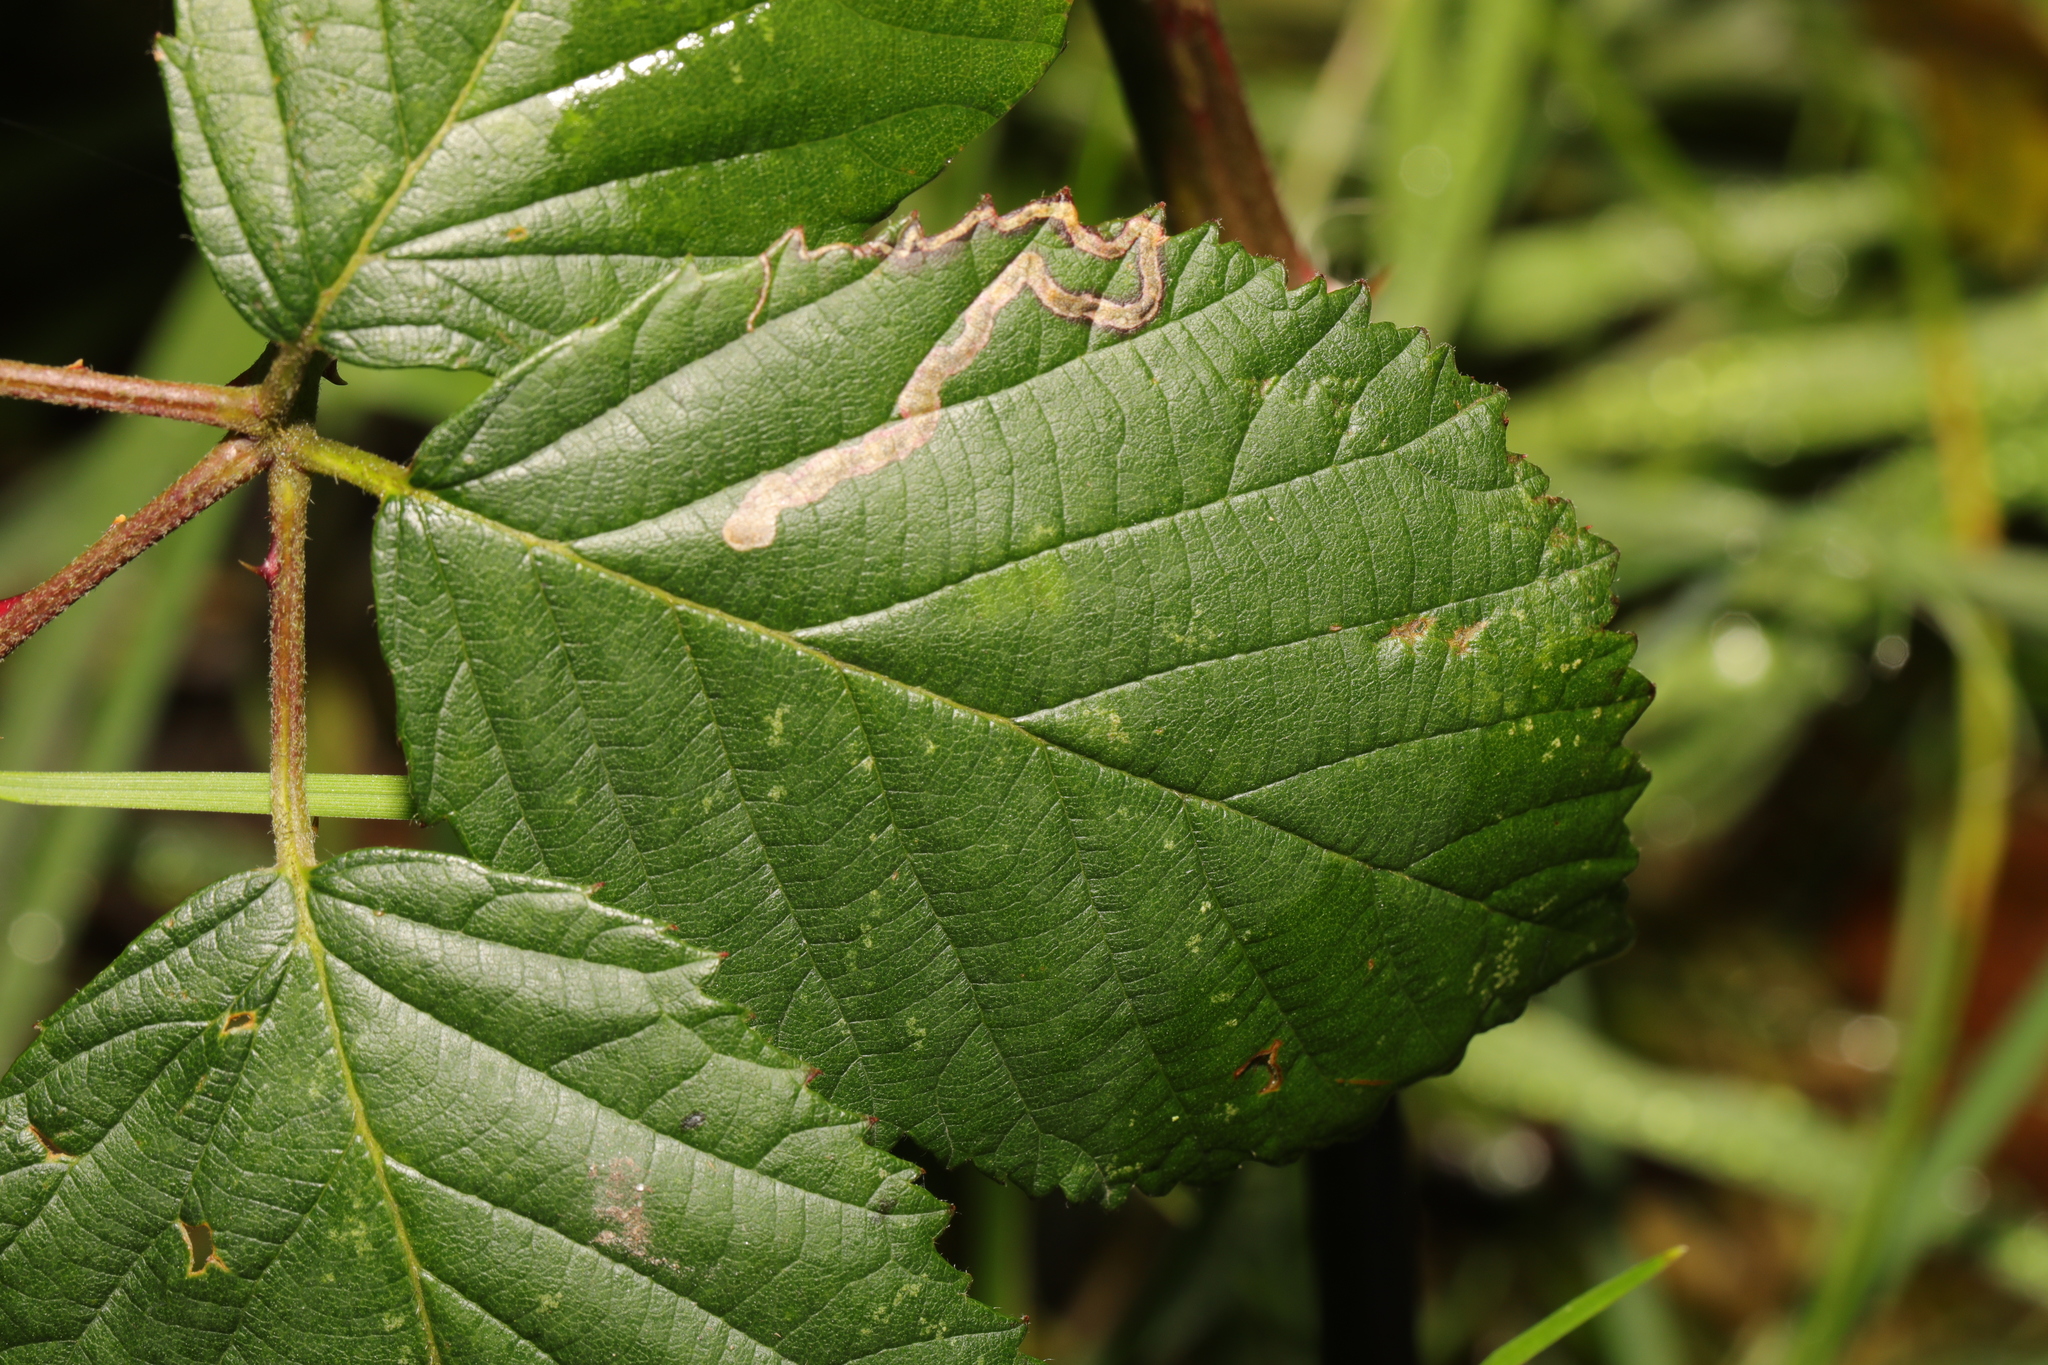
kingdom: Animalia
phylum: Arthropoda
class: Insecta
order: Lepidoptera
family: Nepticulidae
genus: Stigmella
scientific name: Stigmella aurella
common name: Golden pigmy
